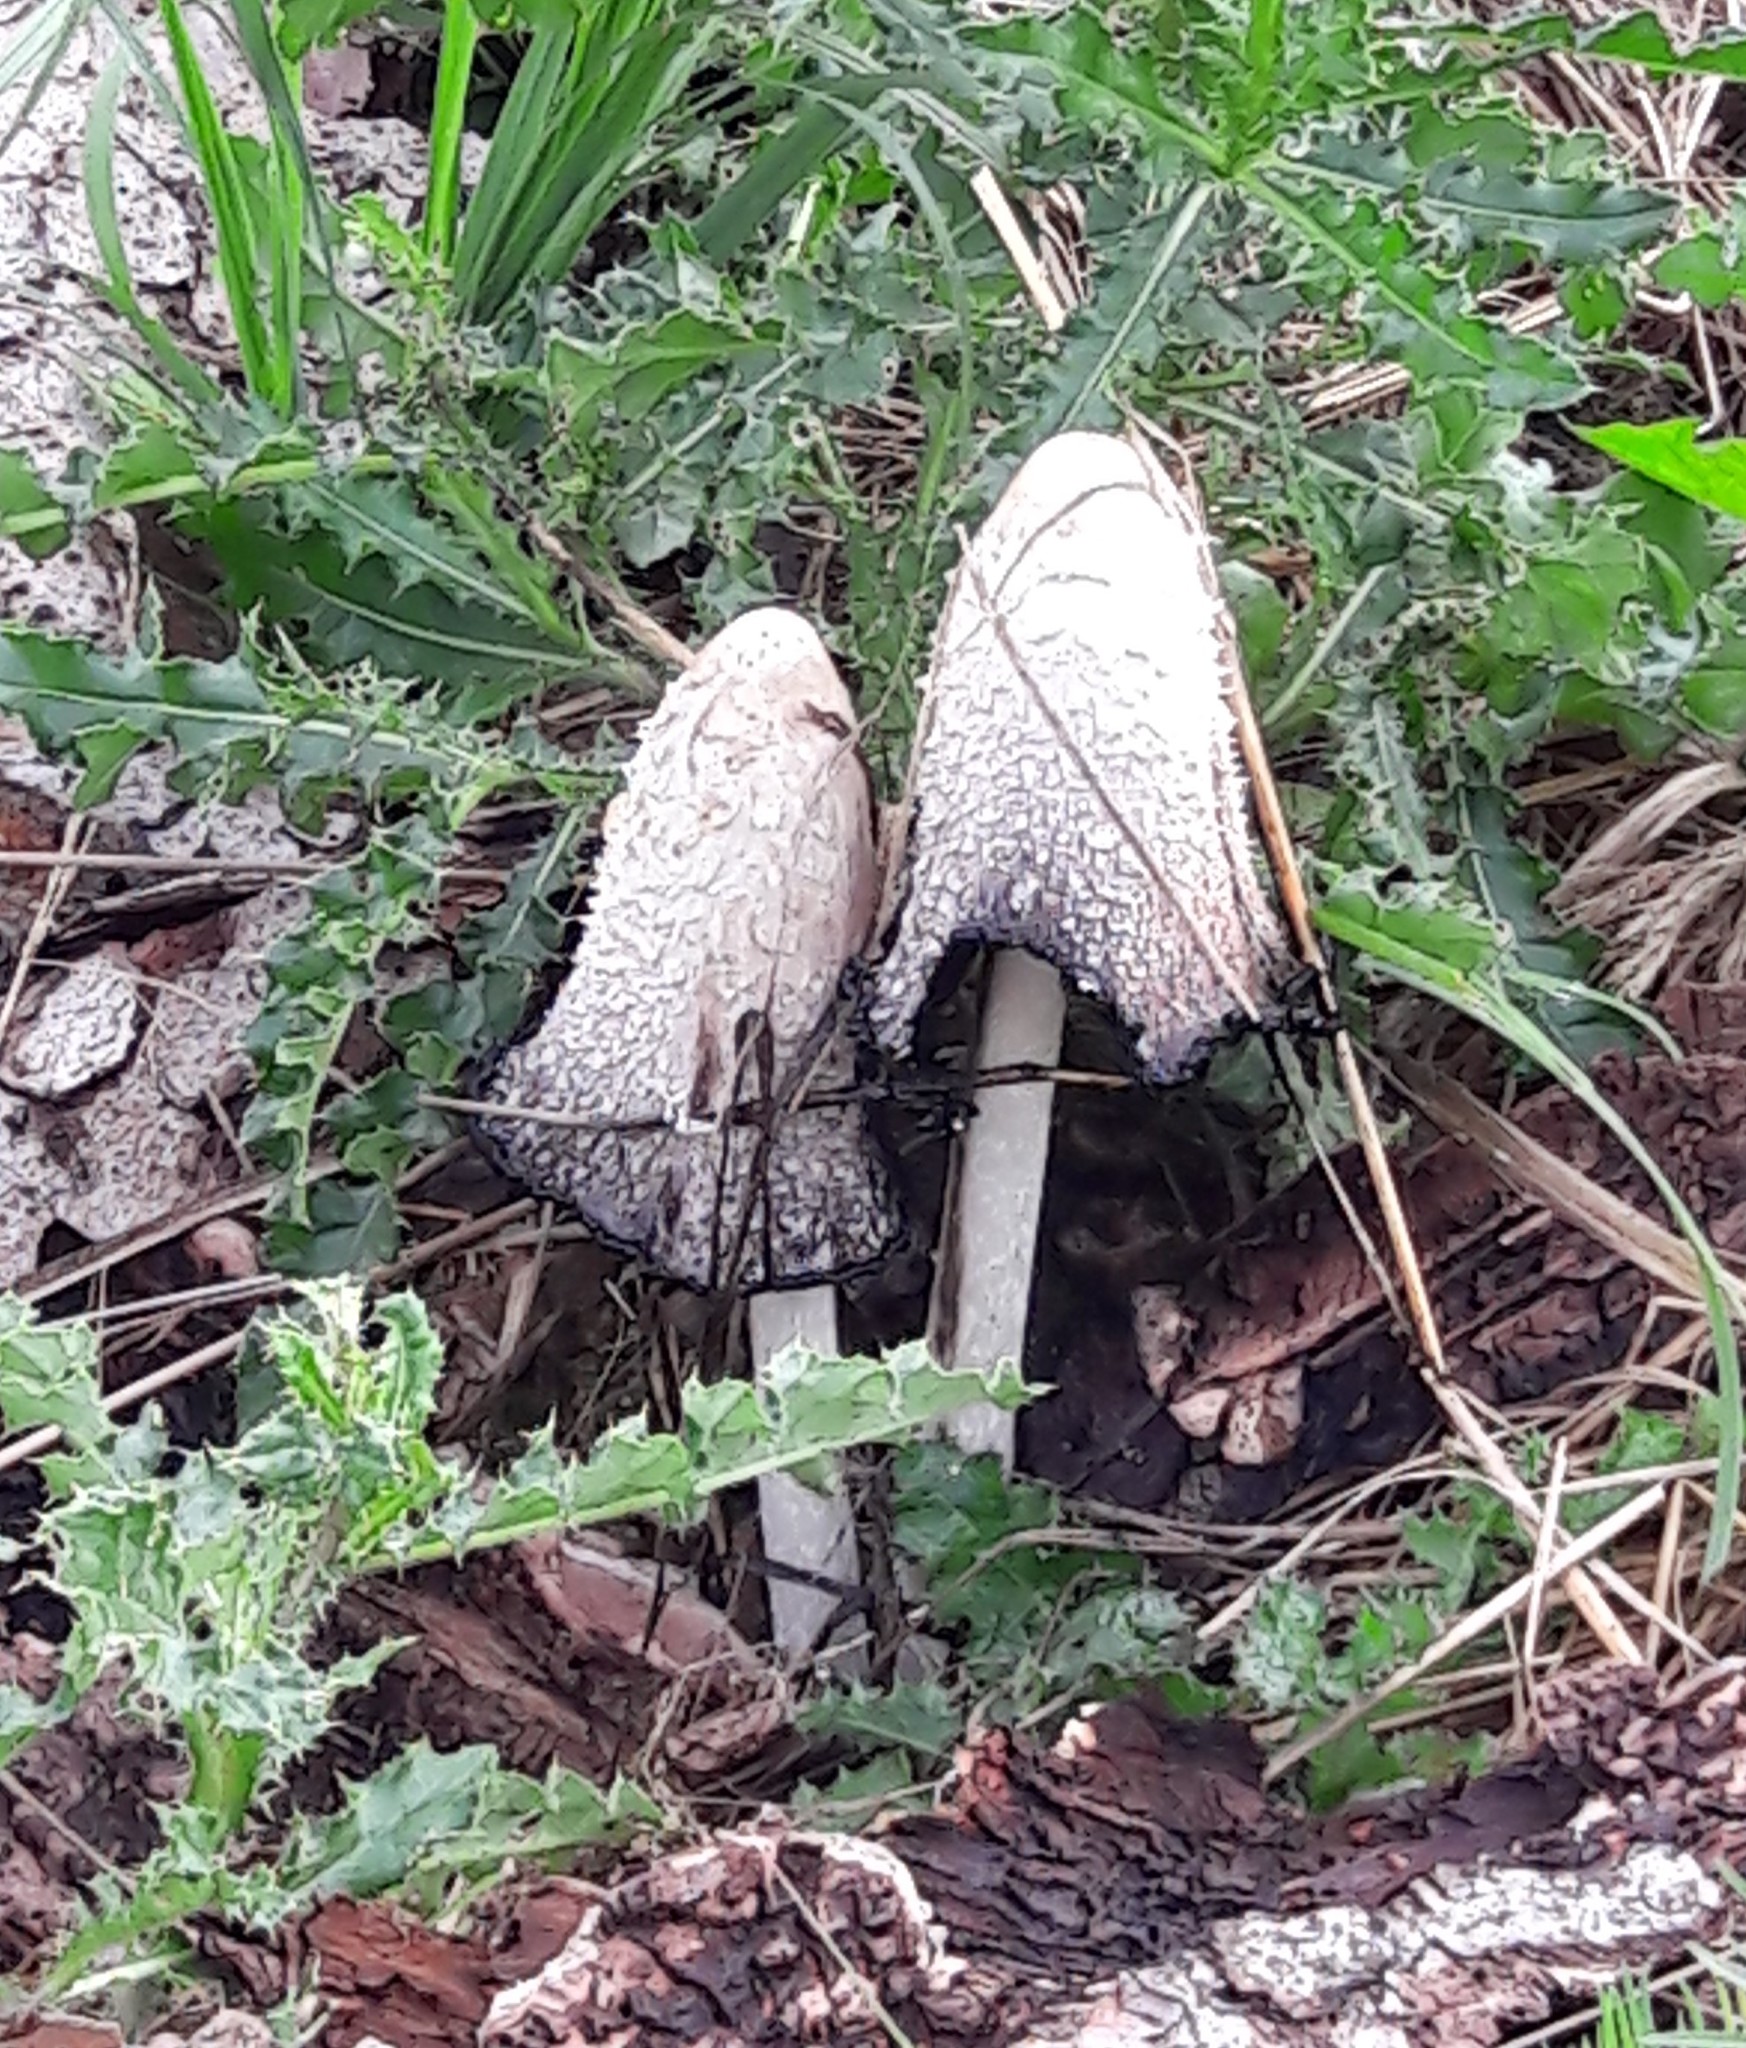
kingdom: Fungi
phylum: Basidiomycota
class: Agaricomycetes
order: Agaricales
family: Agaricaceae
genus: Coprinus
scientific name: Coprinus comatus
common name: Lawyer's wig
